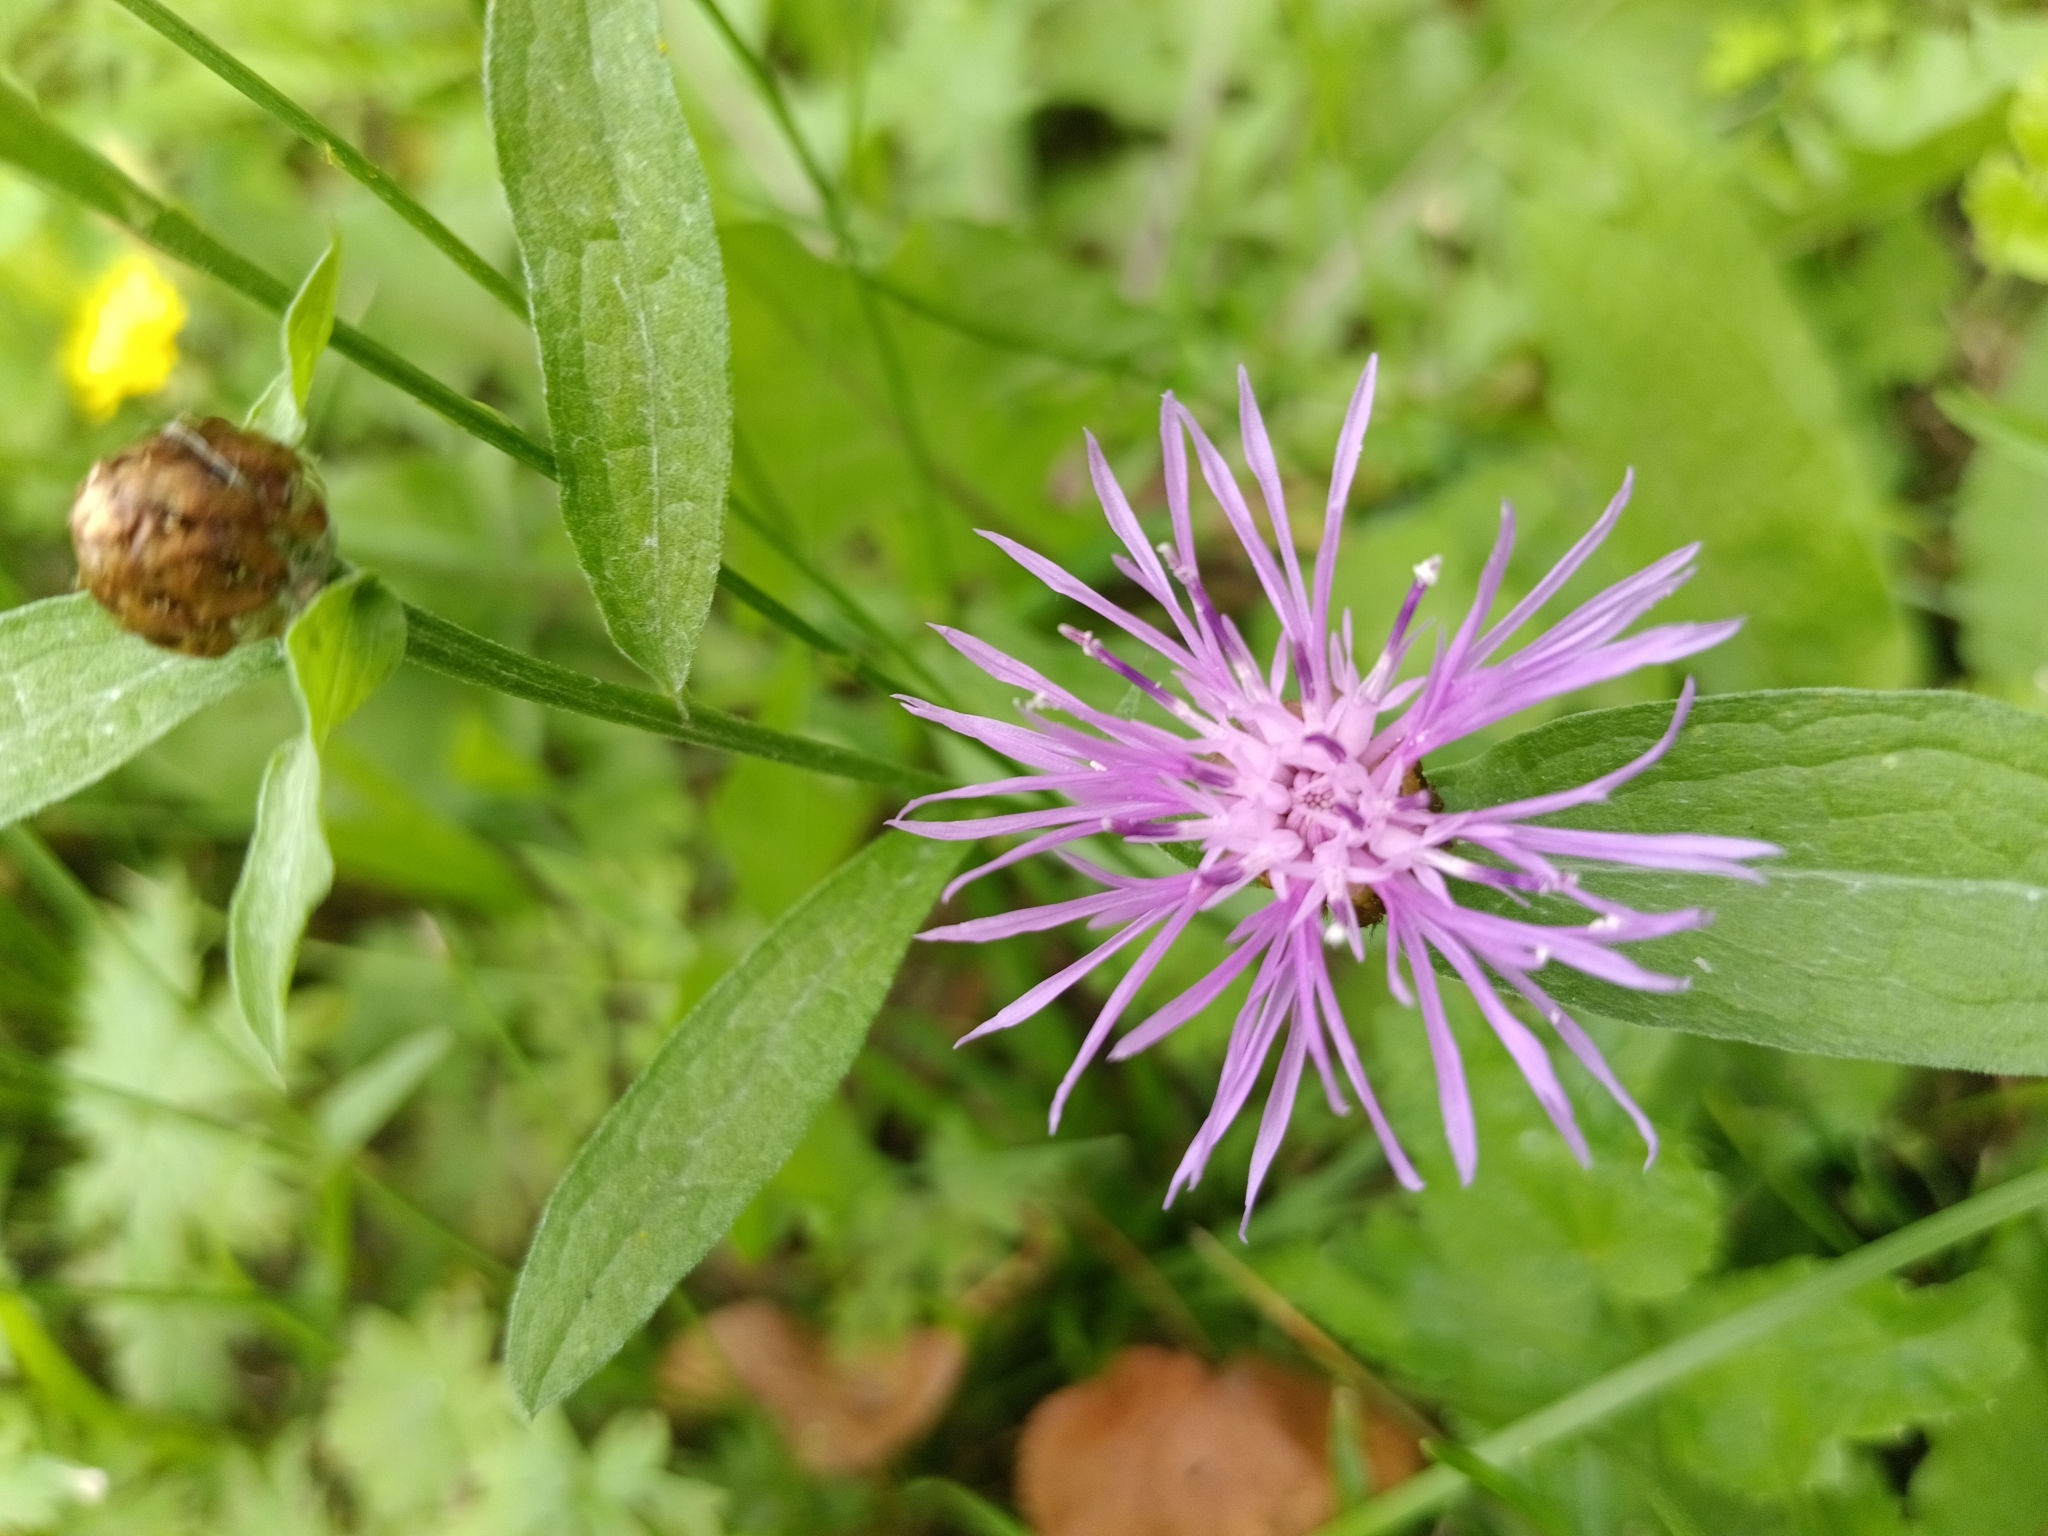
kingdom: Plantae
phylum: Tracheophyta
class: Magnoliopsida
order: Asterales
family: Asteraceae
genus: Centaurea
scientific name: Centaurea jacea
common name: Brown knapweed
